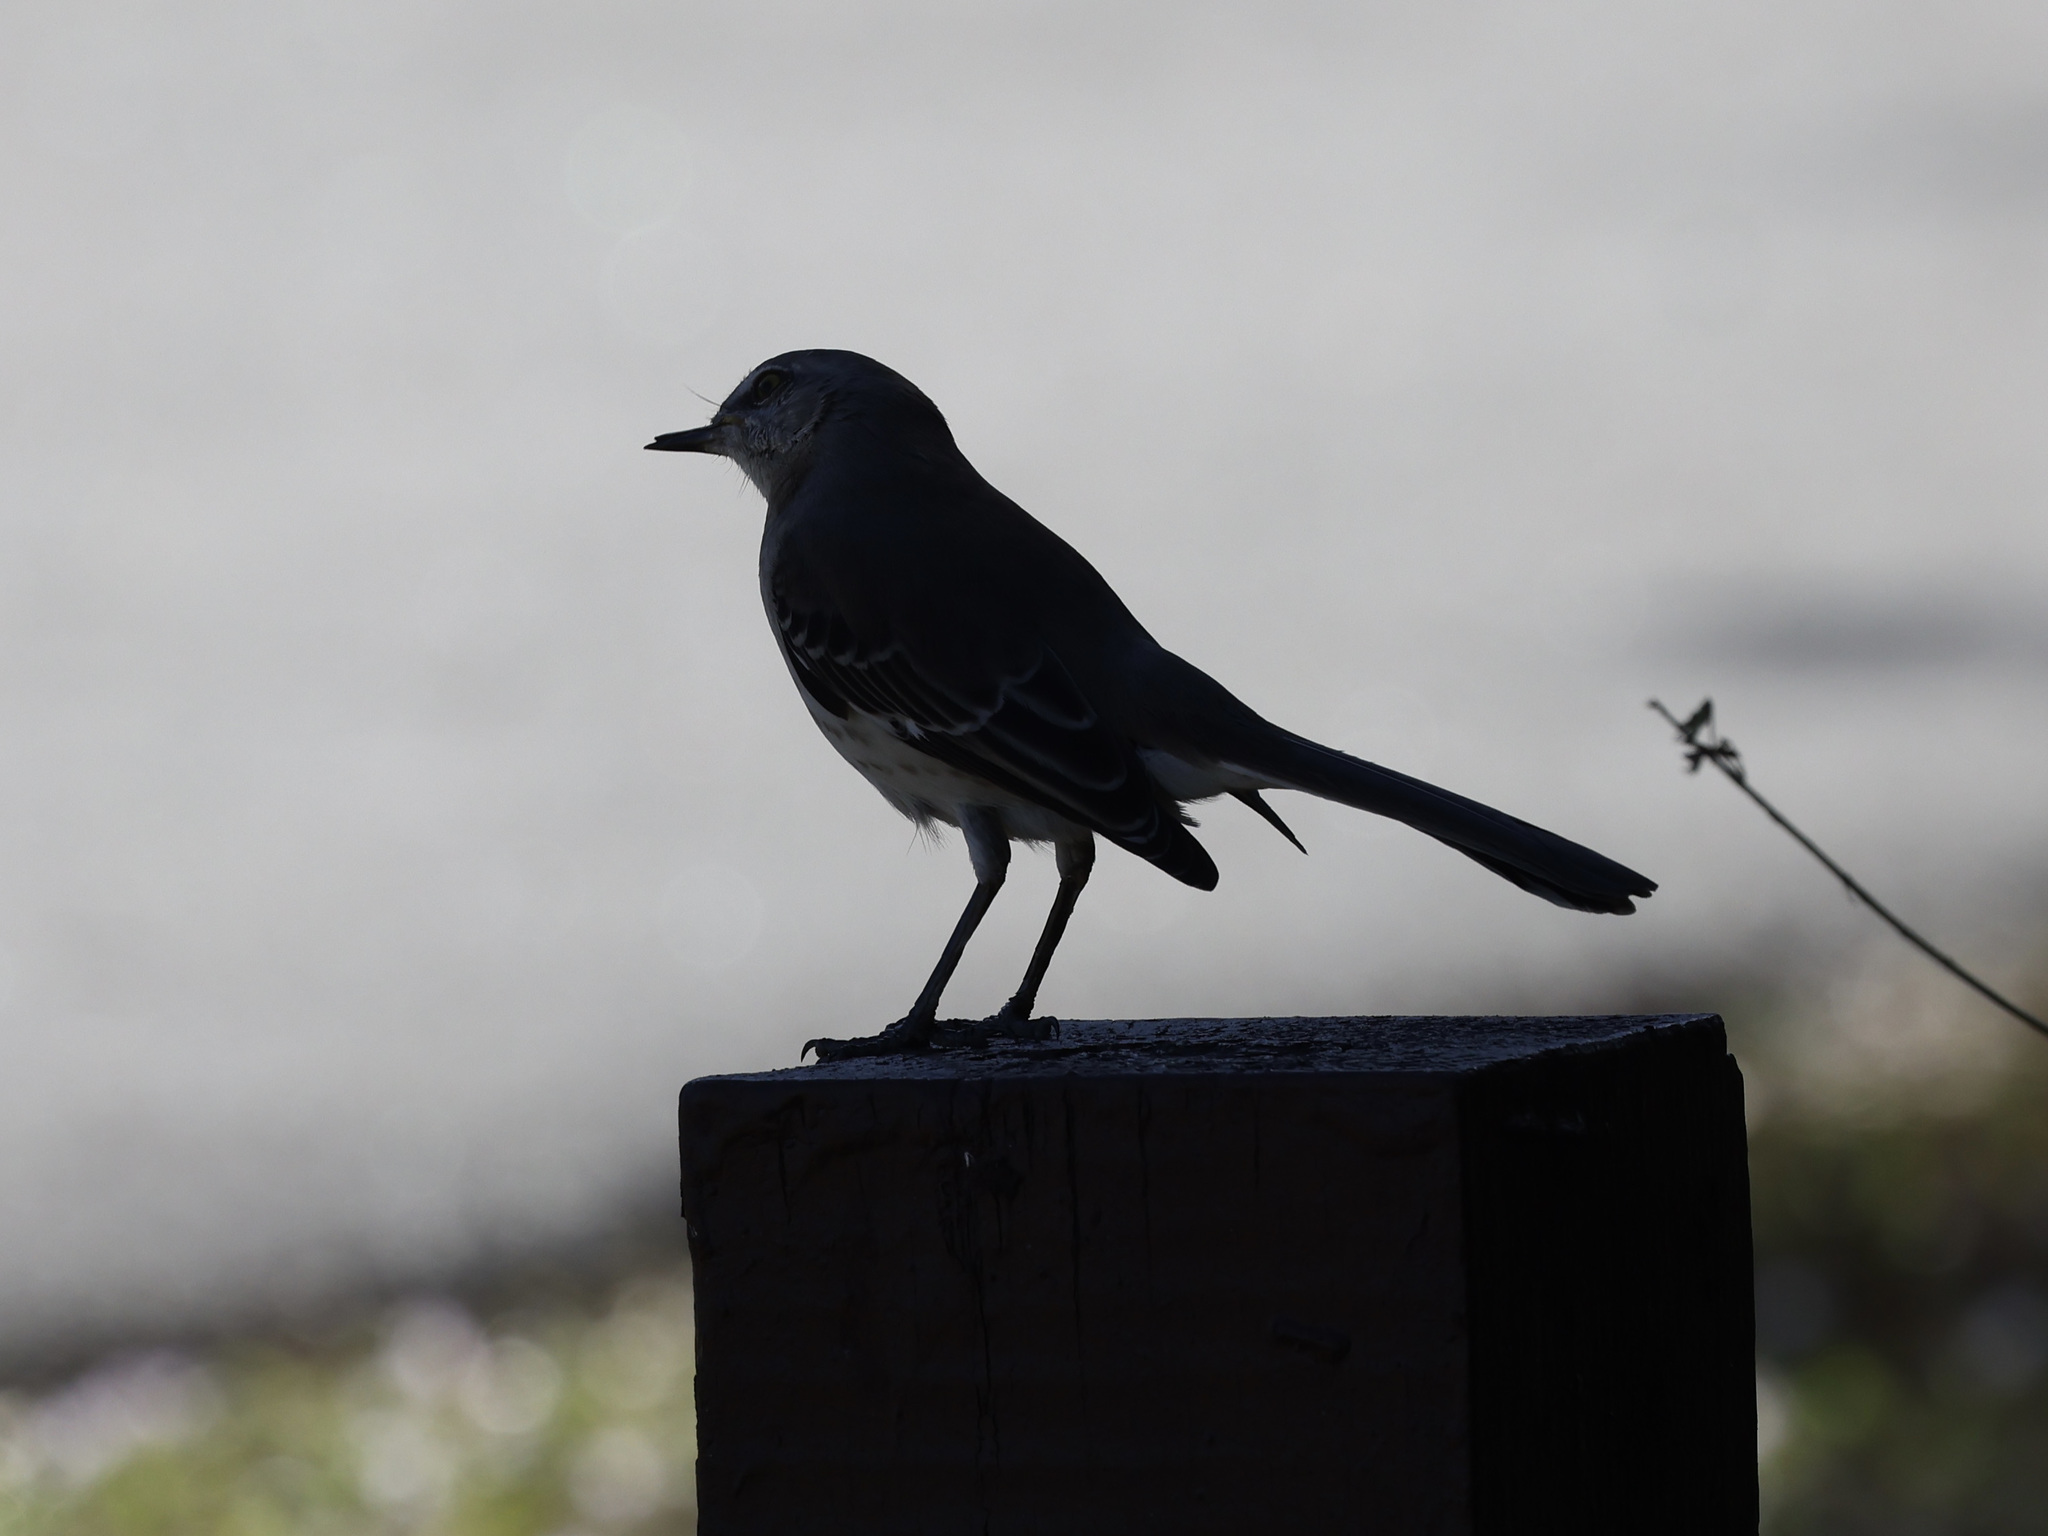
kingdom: Animalia
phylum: Chordata
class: Aves
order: Passeriformes
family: Mimidae
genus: Mimus
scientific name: Mimus polyglottos
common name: Northern mockingbird
